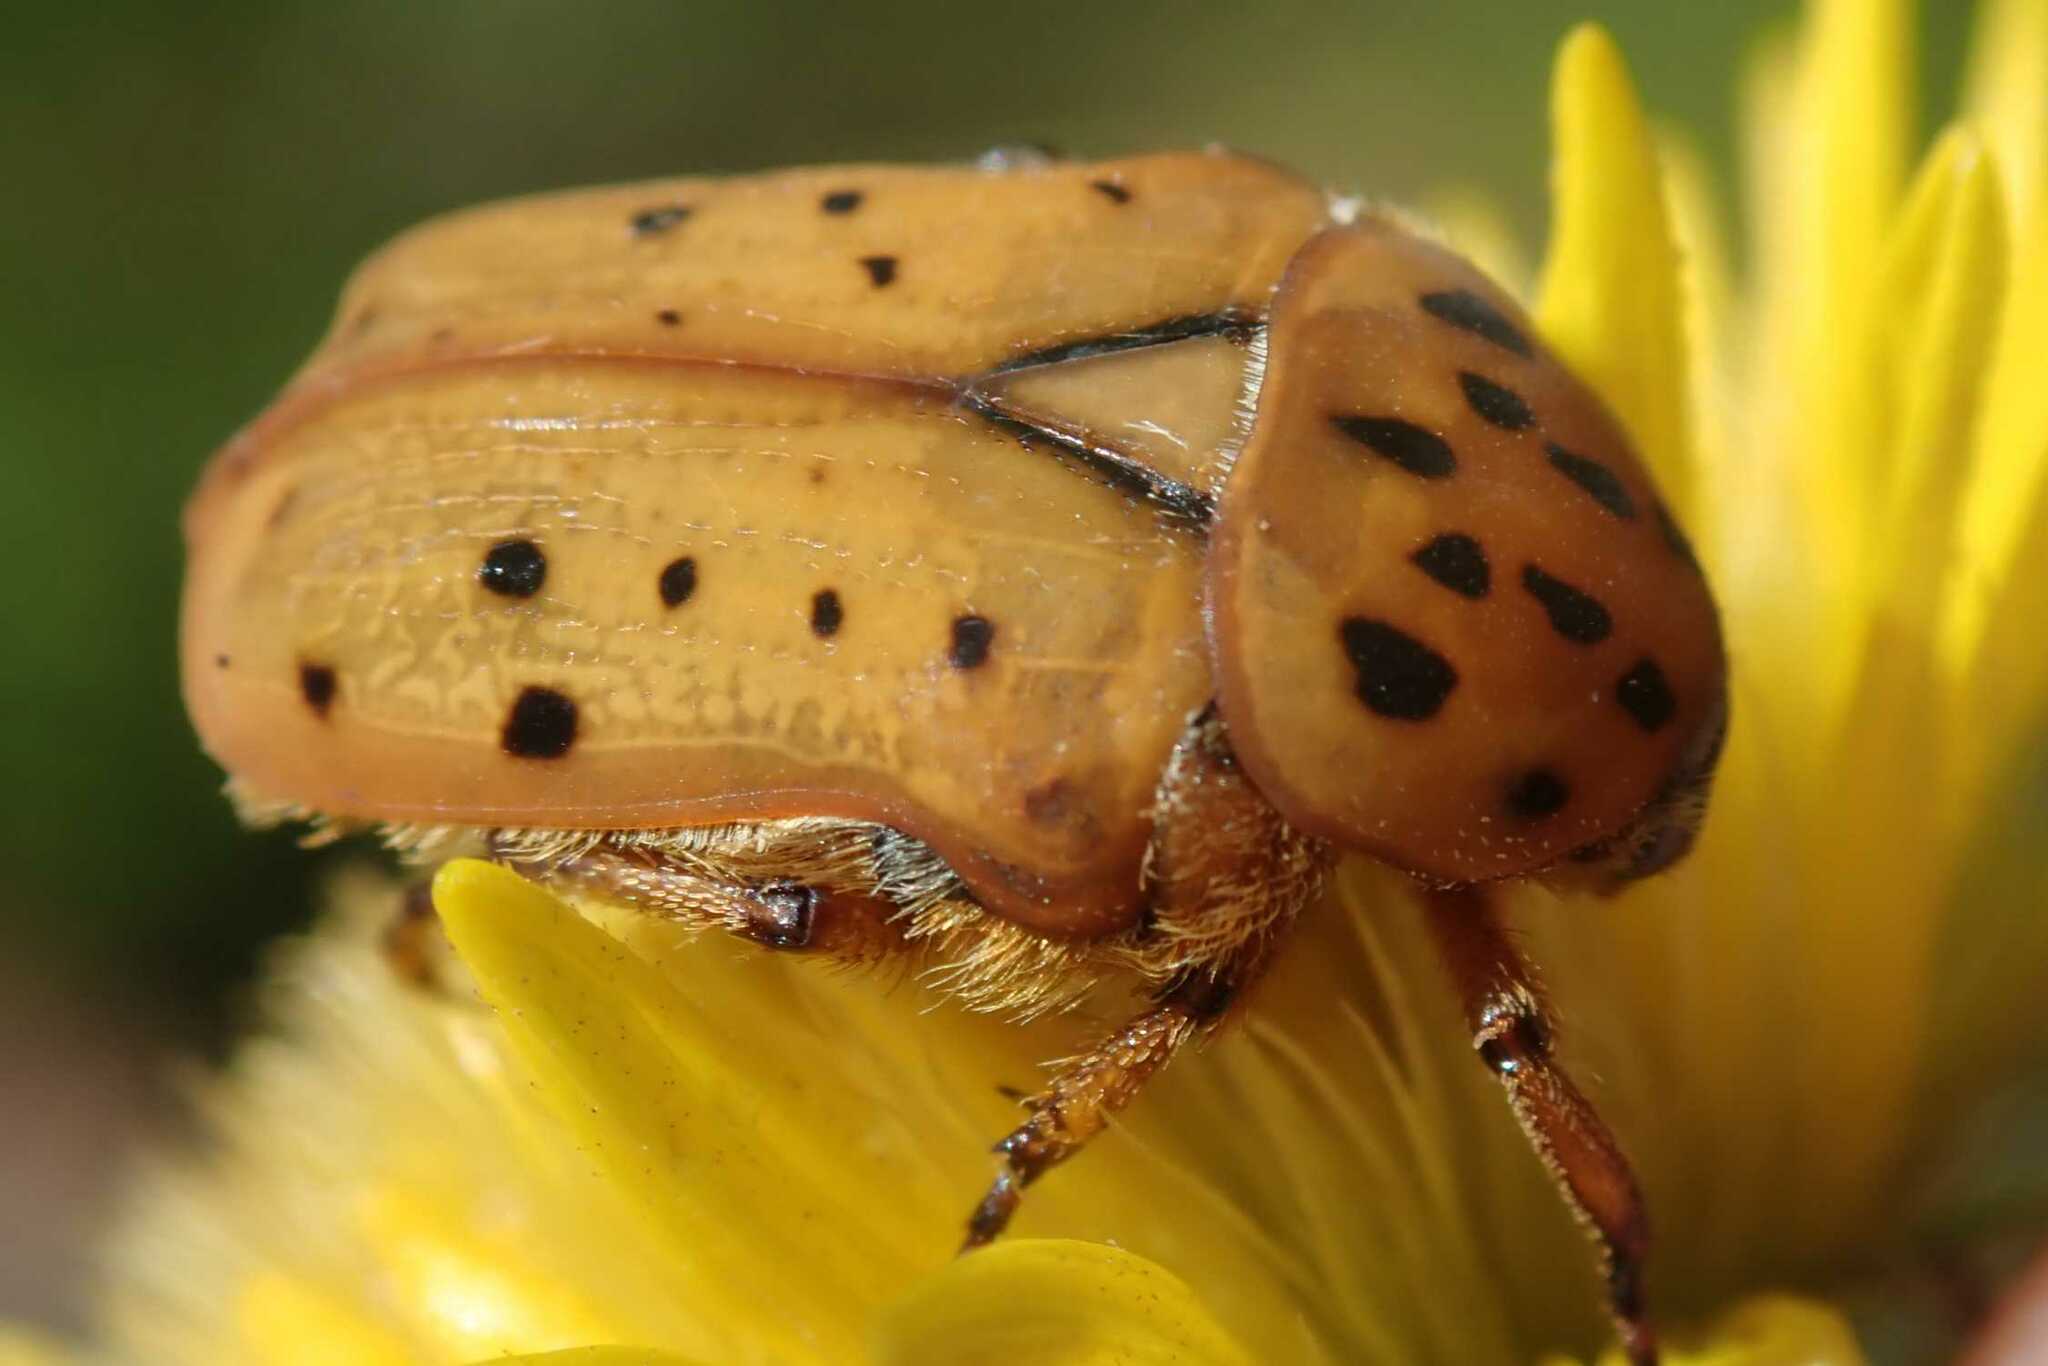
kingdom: Animalia
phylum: Arthropoda
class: Insecta
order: Coleoptera
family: Scarabaeidae
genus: Atrichelaphinis
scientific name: Atrichelaphinis nigropunctulata
